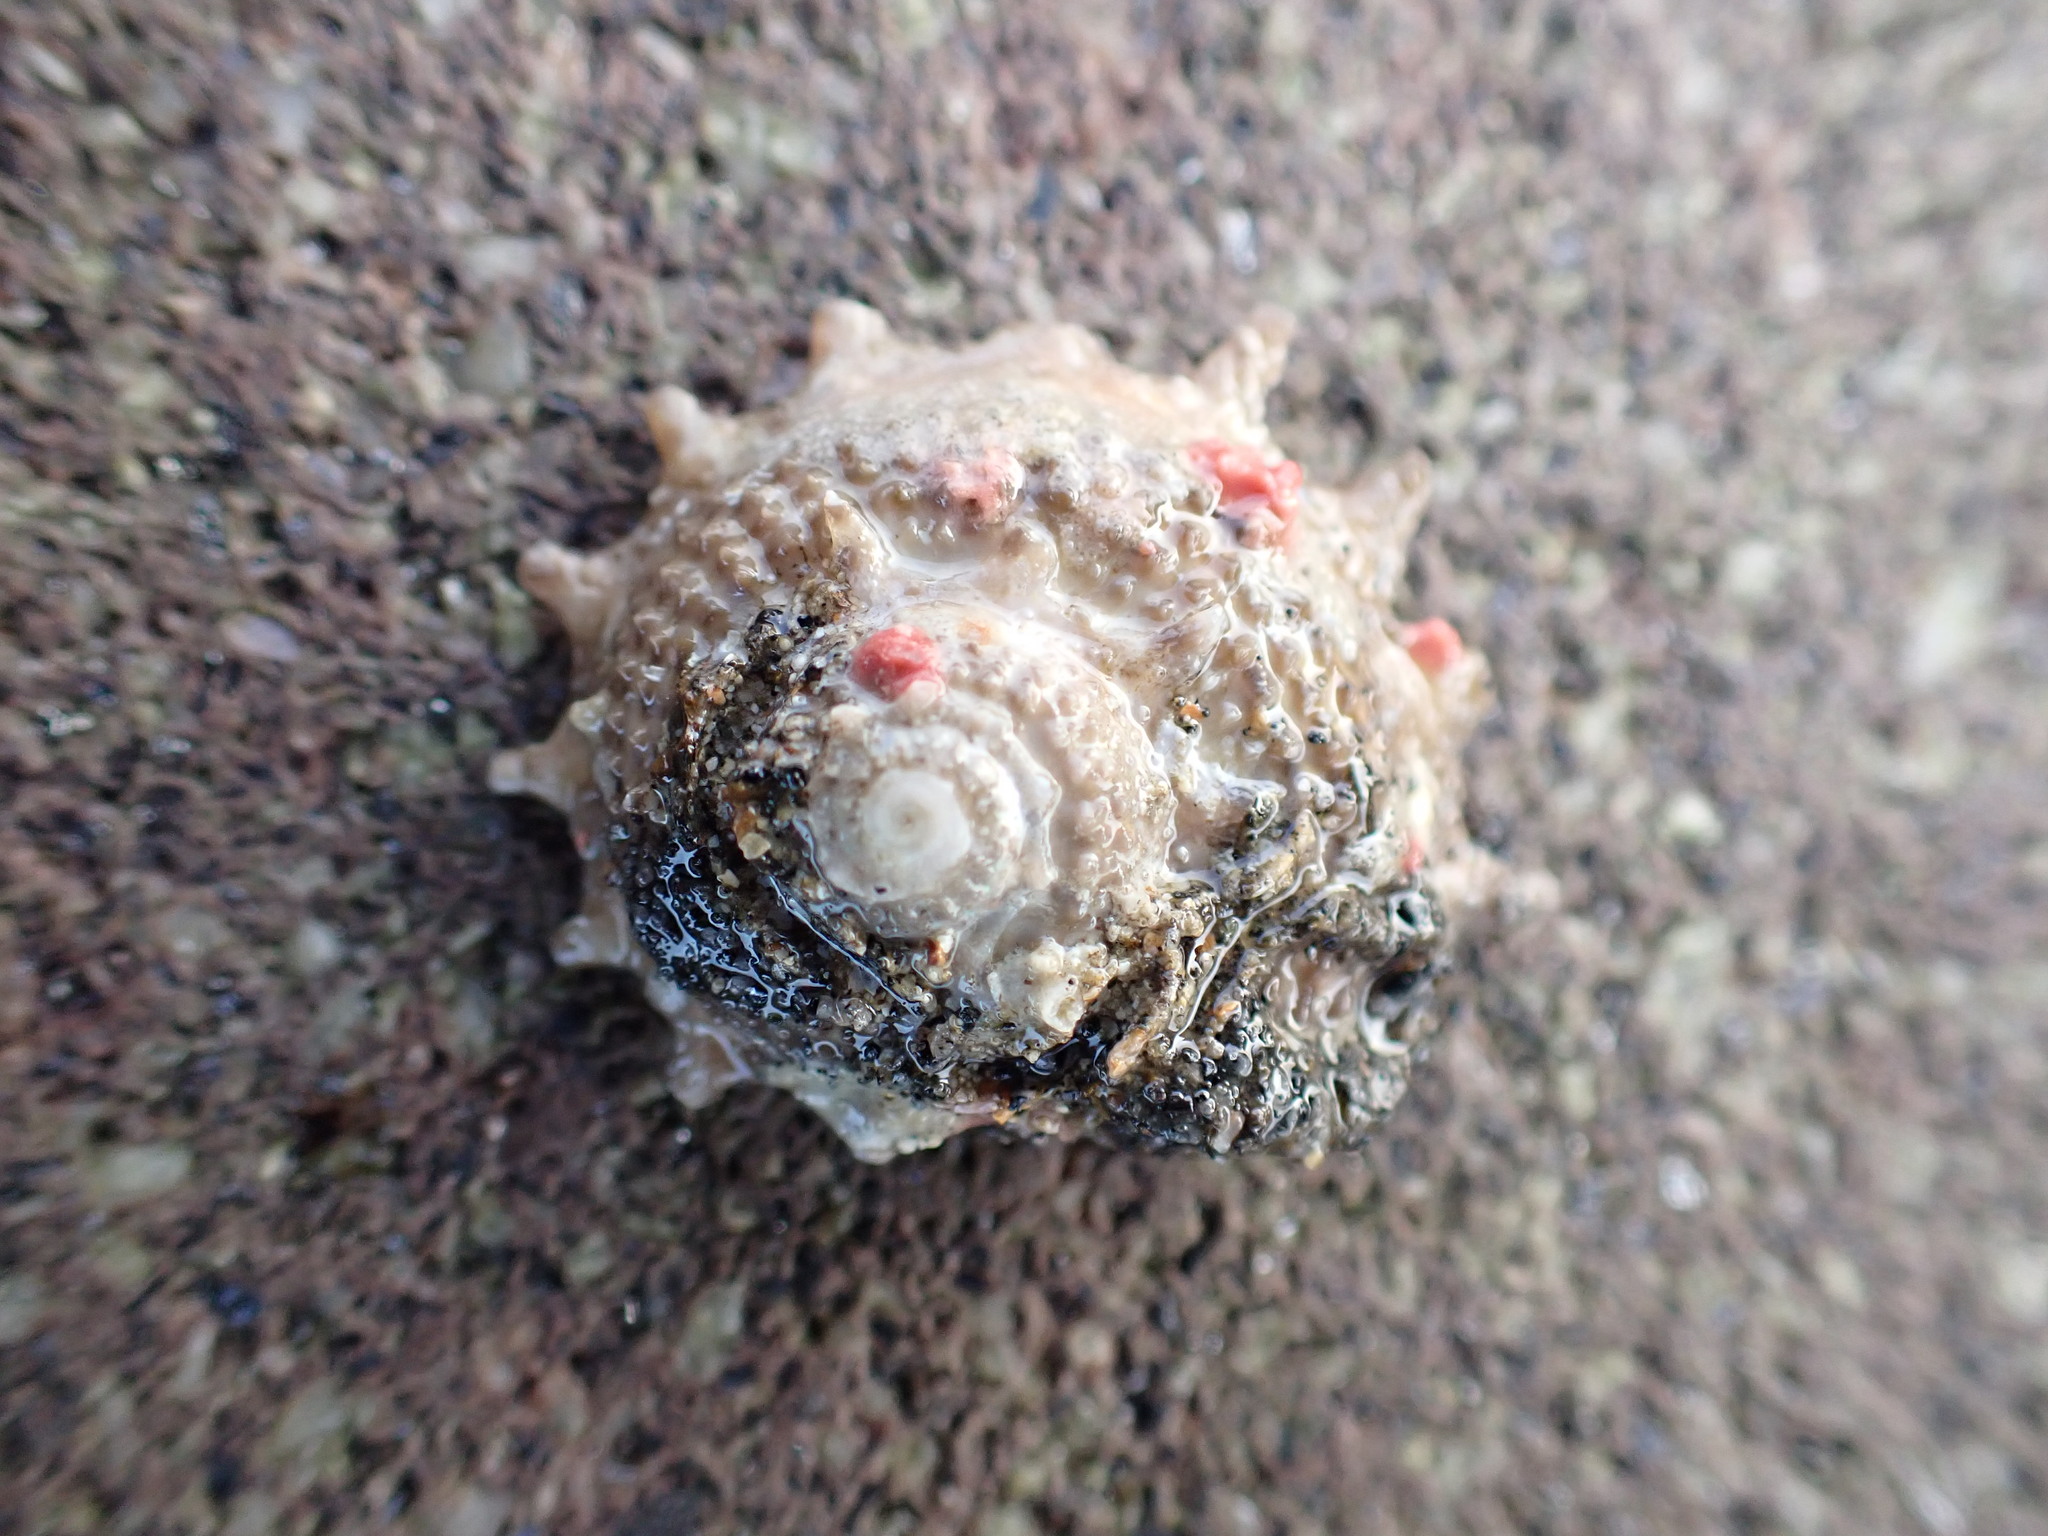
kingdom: Animalia
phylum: Mollusca
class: Gastropoda
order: Trochida
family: Turbinidae
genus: Astraea
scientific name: Astraea heliotropium
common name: Sun shell
